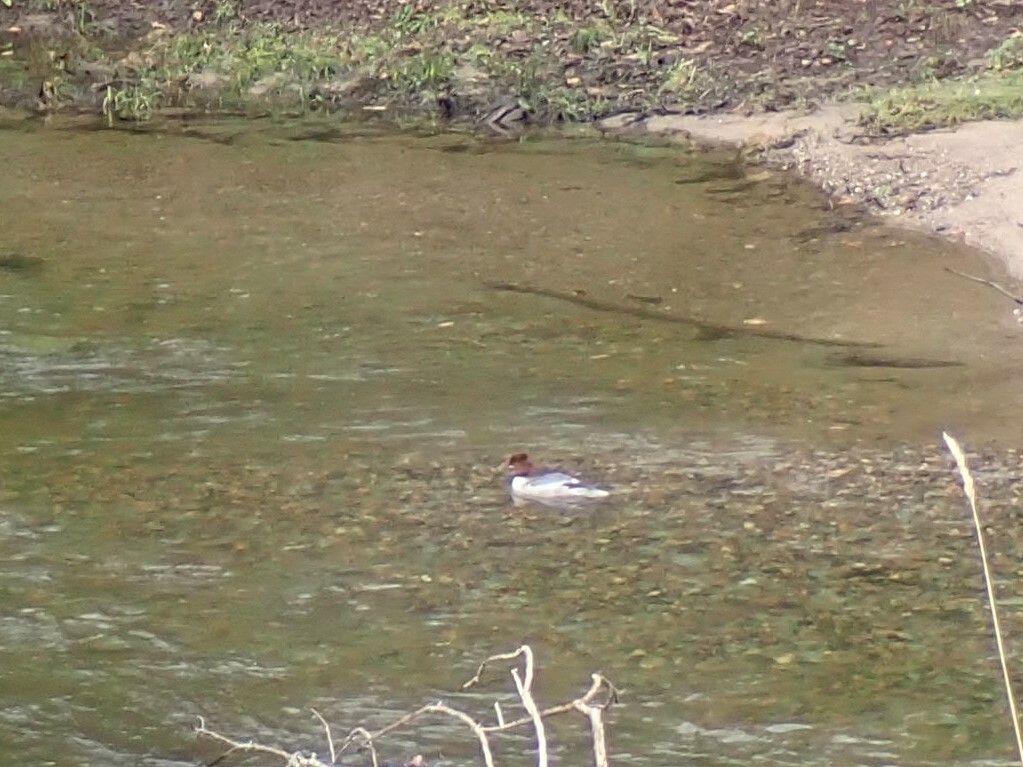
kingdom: Animalia
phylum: Chordata
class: Aves
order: Anseriformes
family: Anatidae
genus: Mergus
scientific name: Mergus merganser
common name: Common merganser
